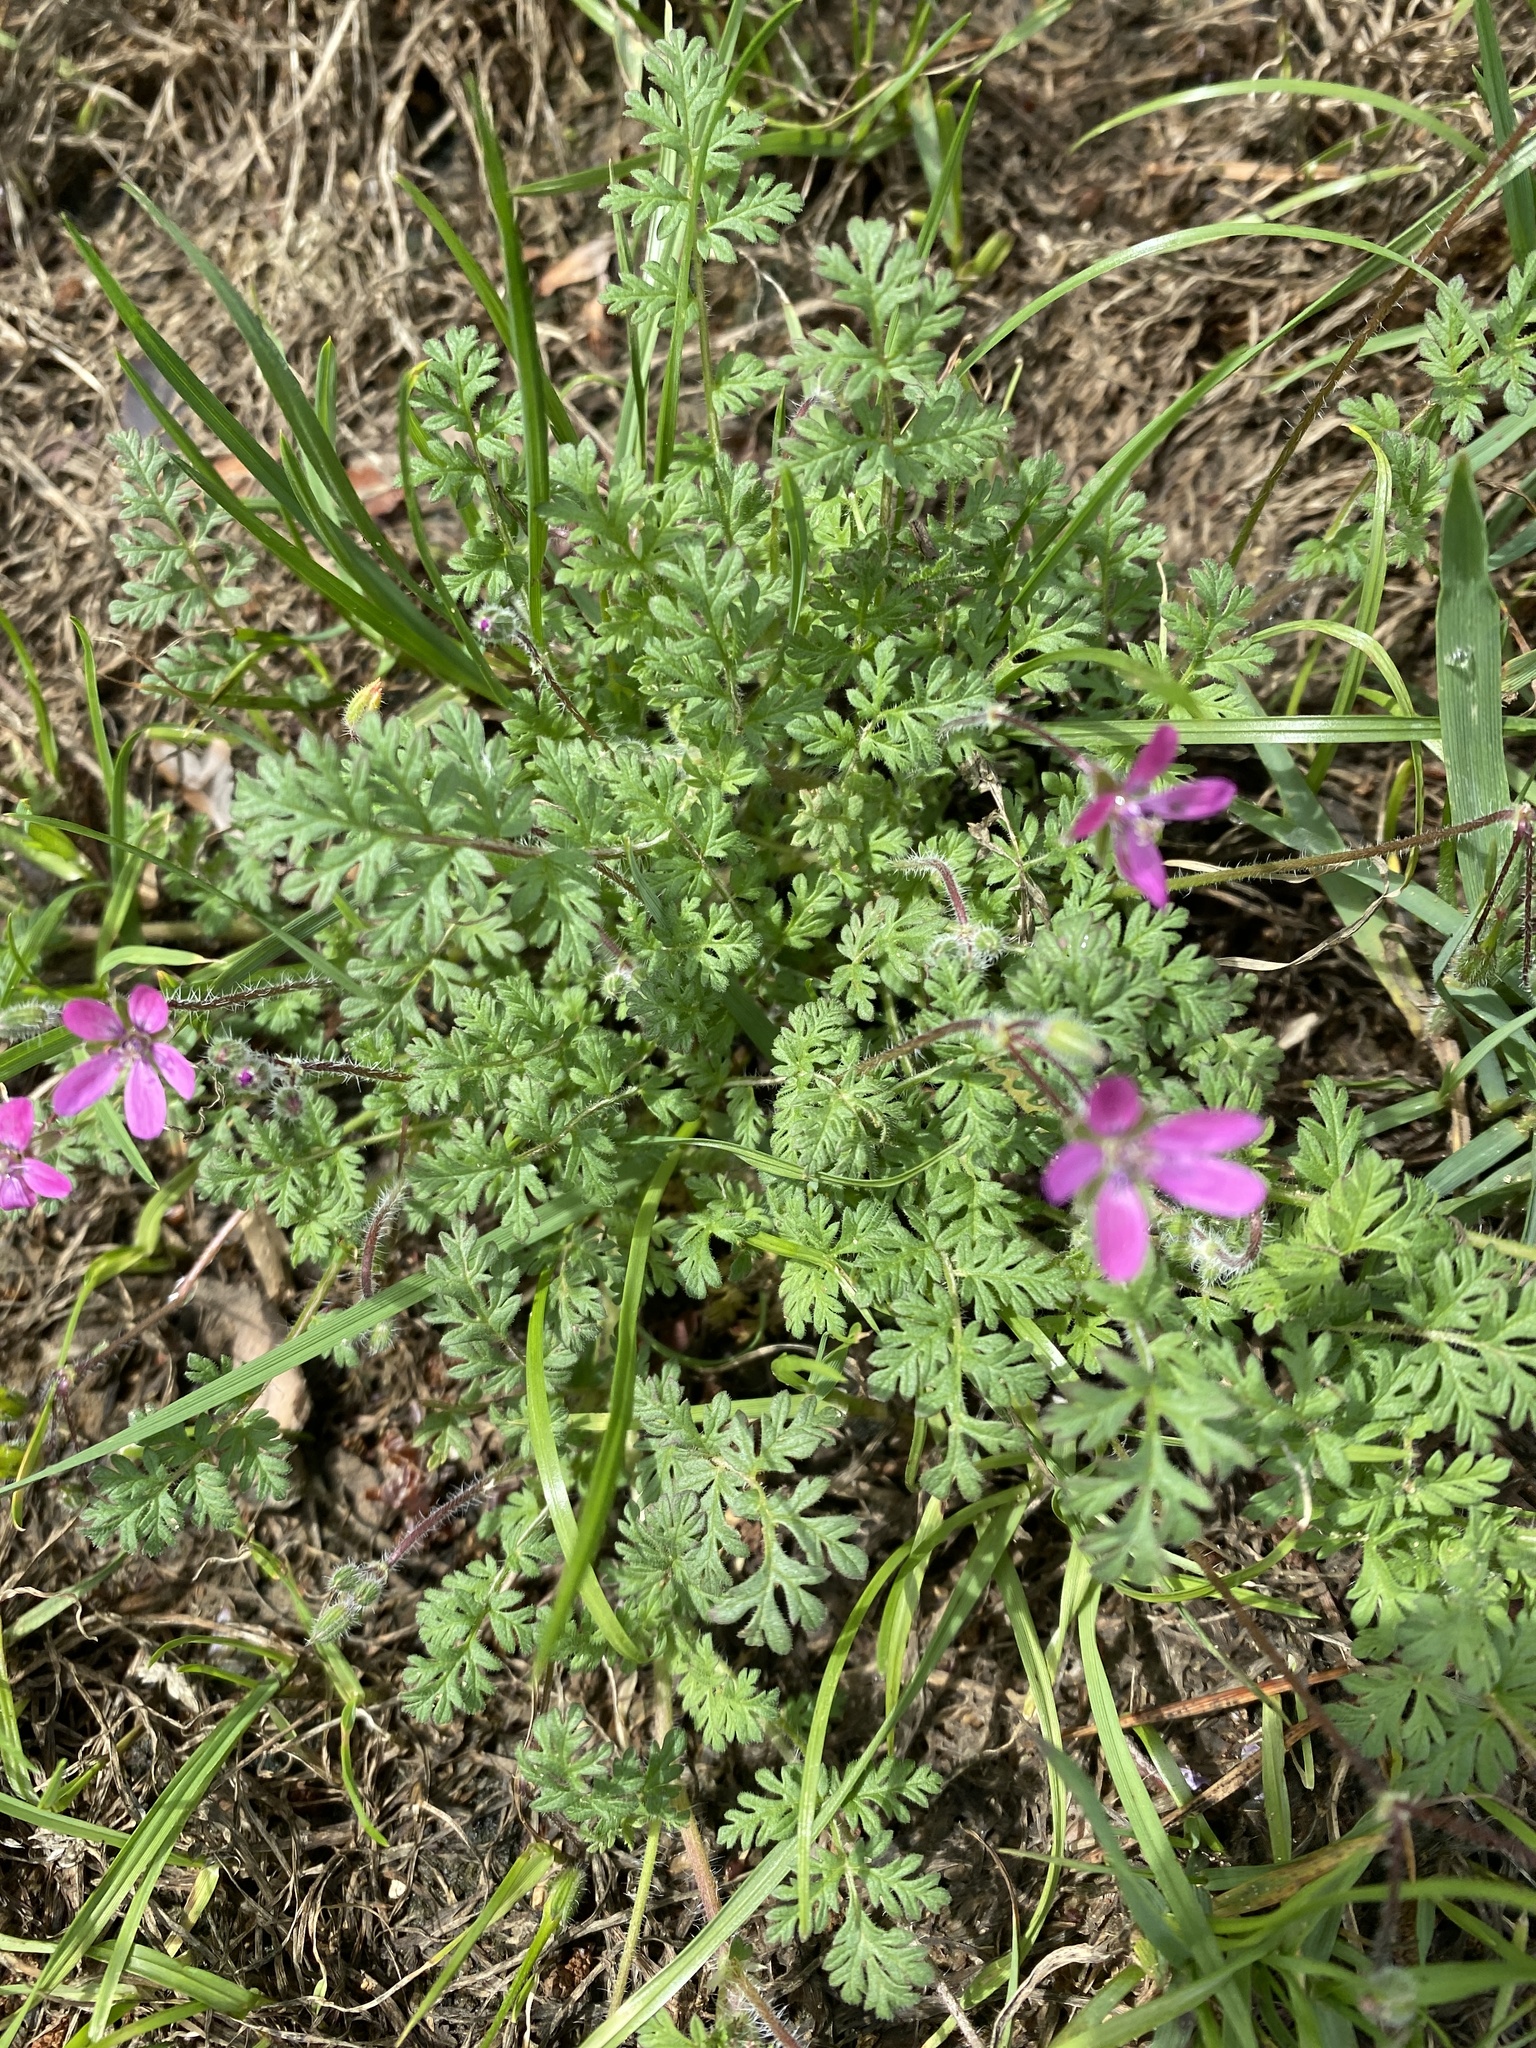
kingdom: Plantae
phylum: Tracheophyta
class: Magnoliopsida
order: Geraniales
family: Geraniaceae
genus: Erodium
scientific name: Erodium cicutarium
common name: Common stork's-bill
